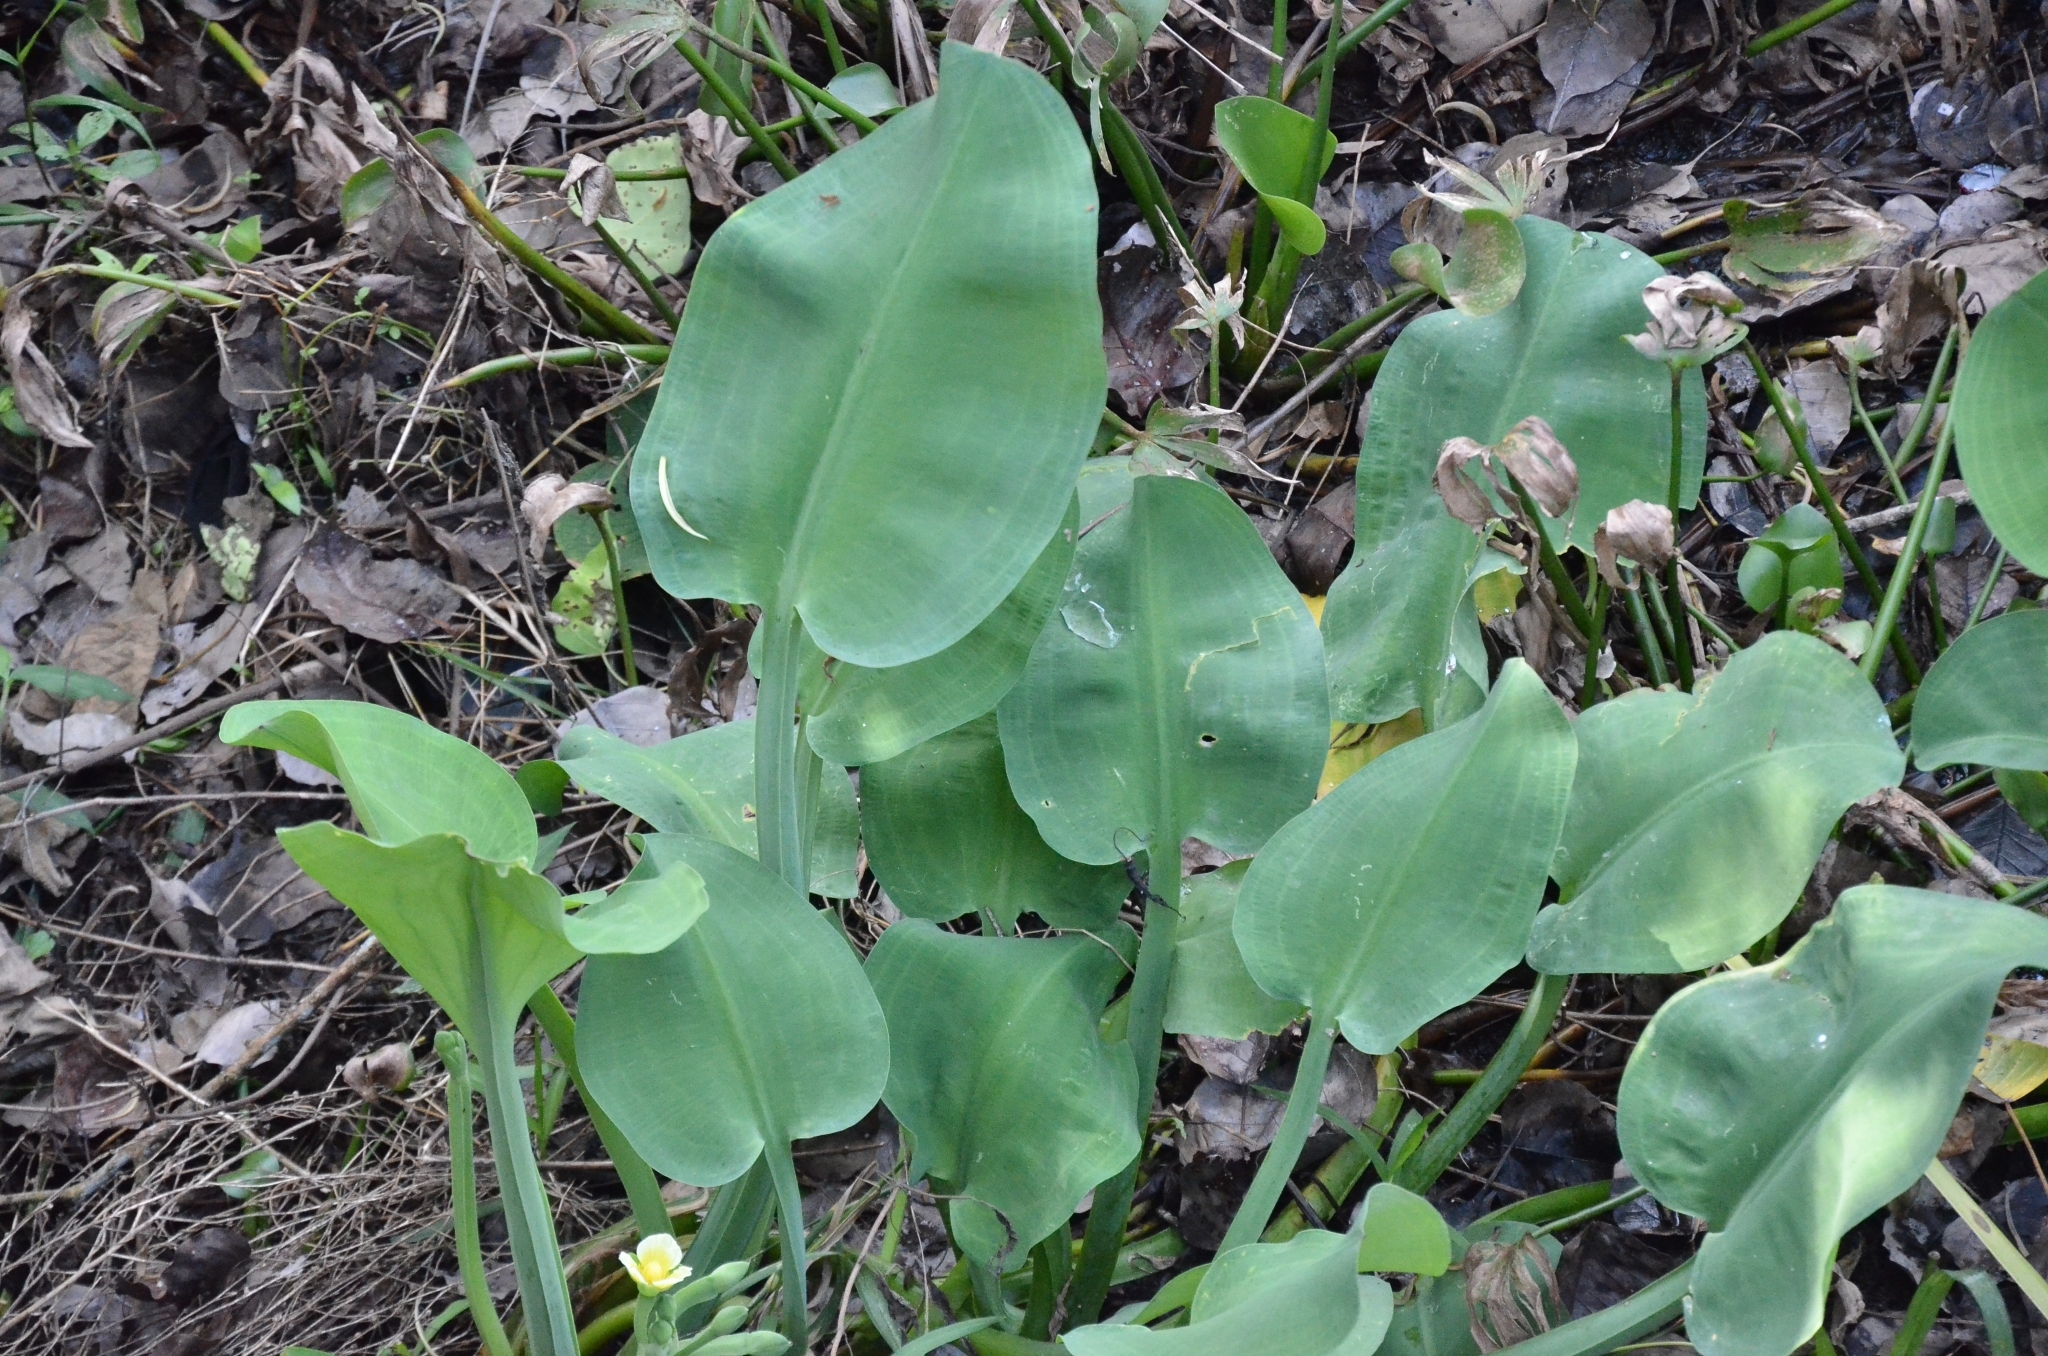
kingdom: Plantae
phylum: Tracheophyta
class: Liliopsida
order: Alismatales
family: Alismataceae
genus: Limnocharis
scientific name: Limnocharis flava
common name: Sawah-flower-rush
